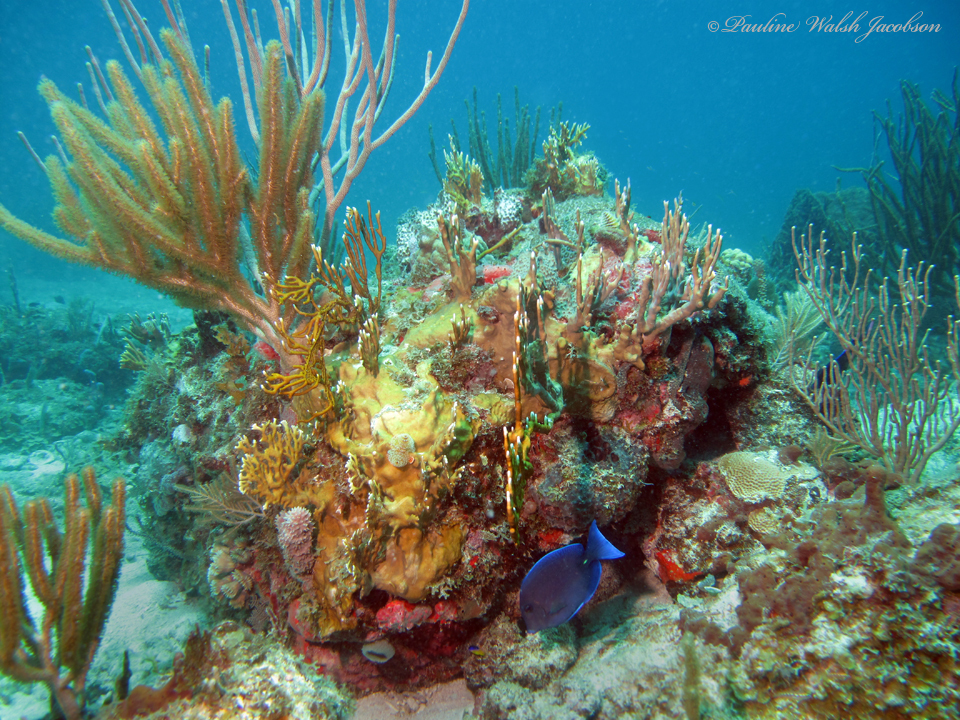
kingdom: Animalia
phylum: Chordata
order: Perciformes
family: Acanthuridae
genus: Acanthurus
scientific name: Acanthurus coeruleus
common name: Blue tang
